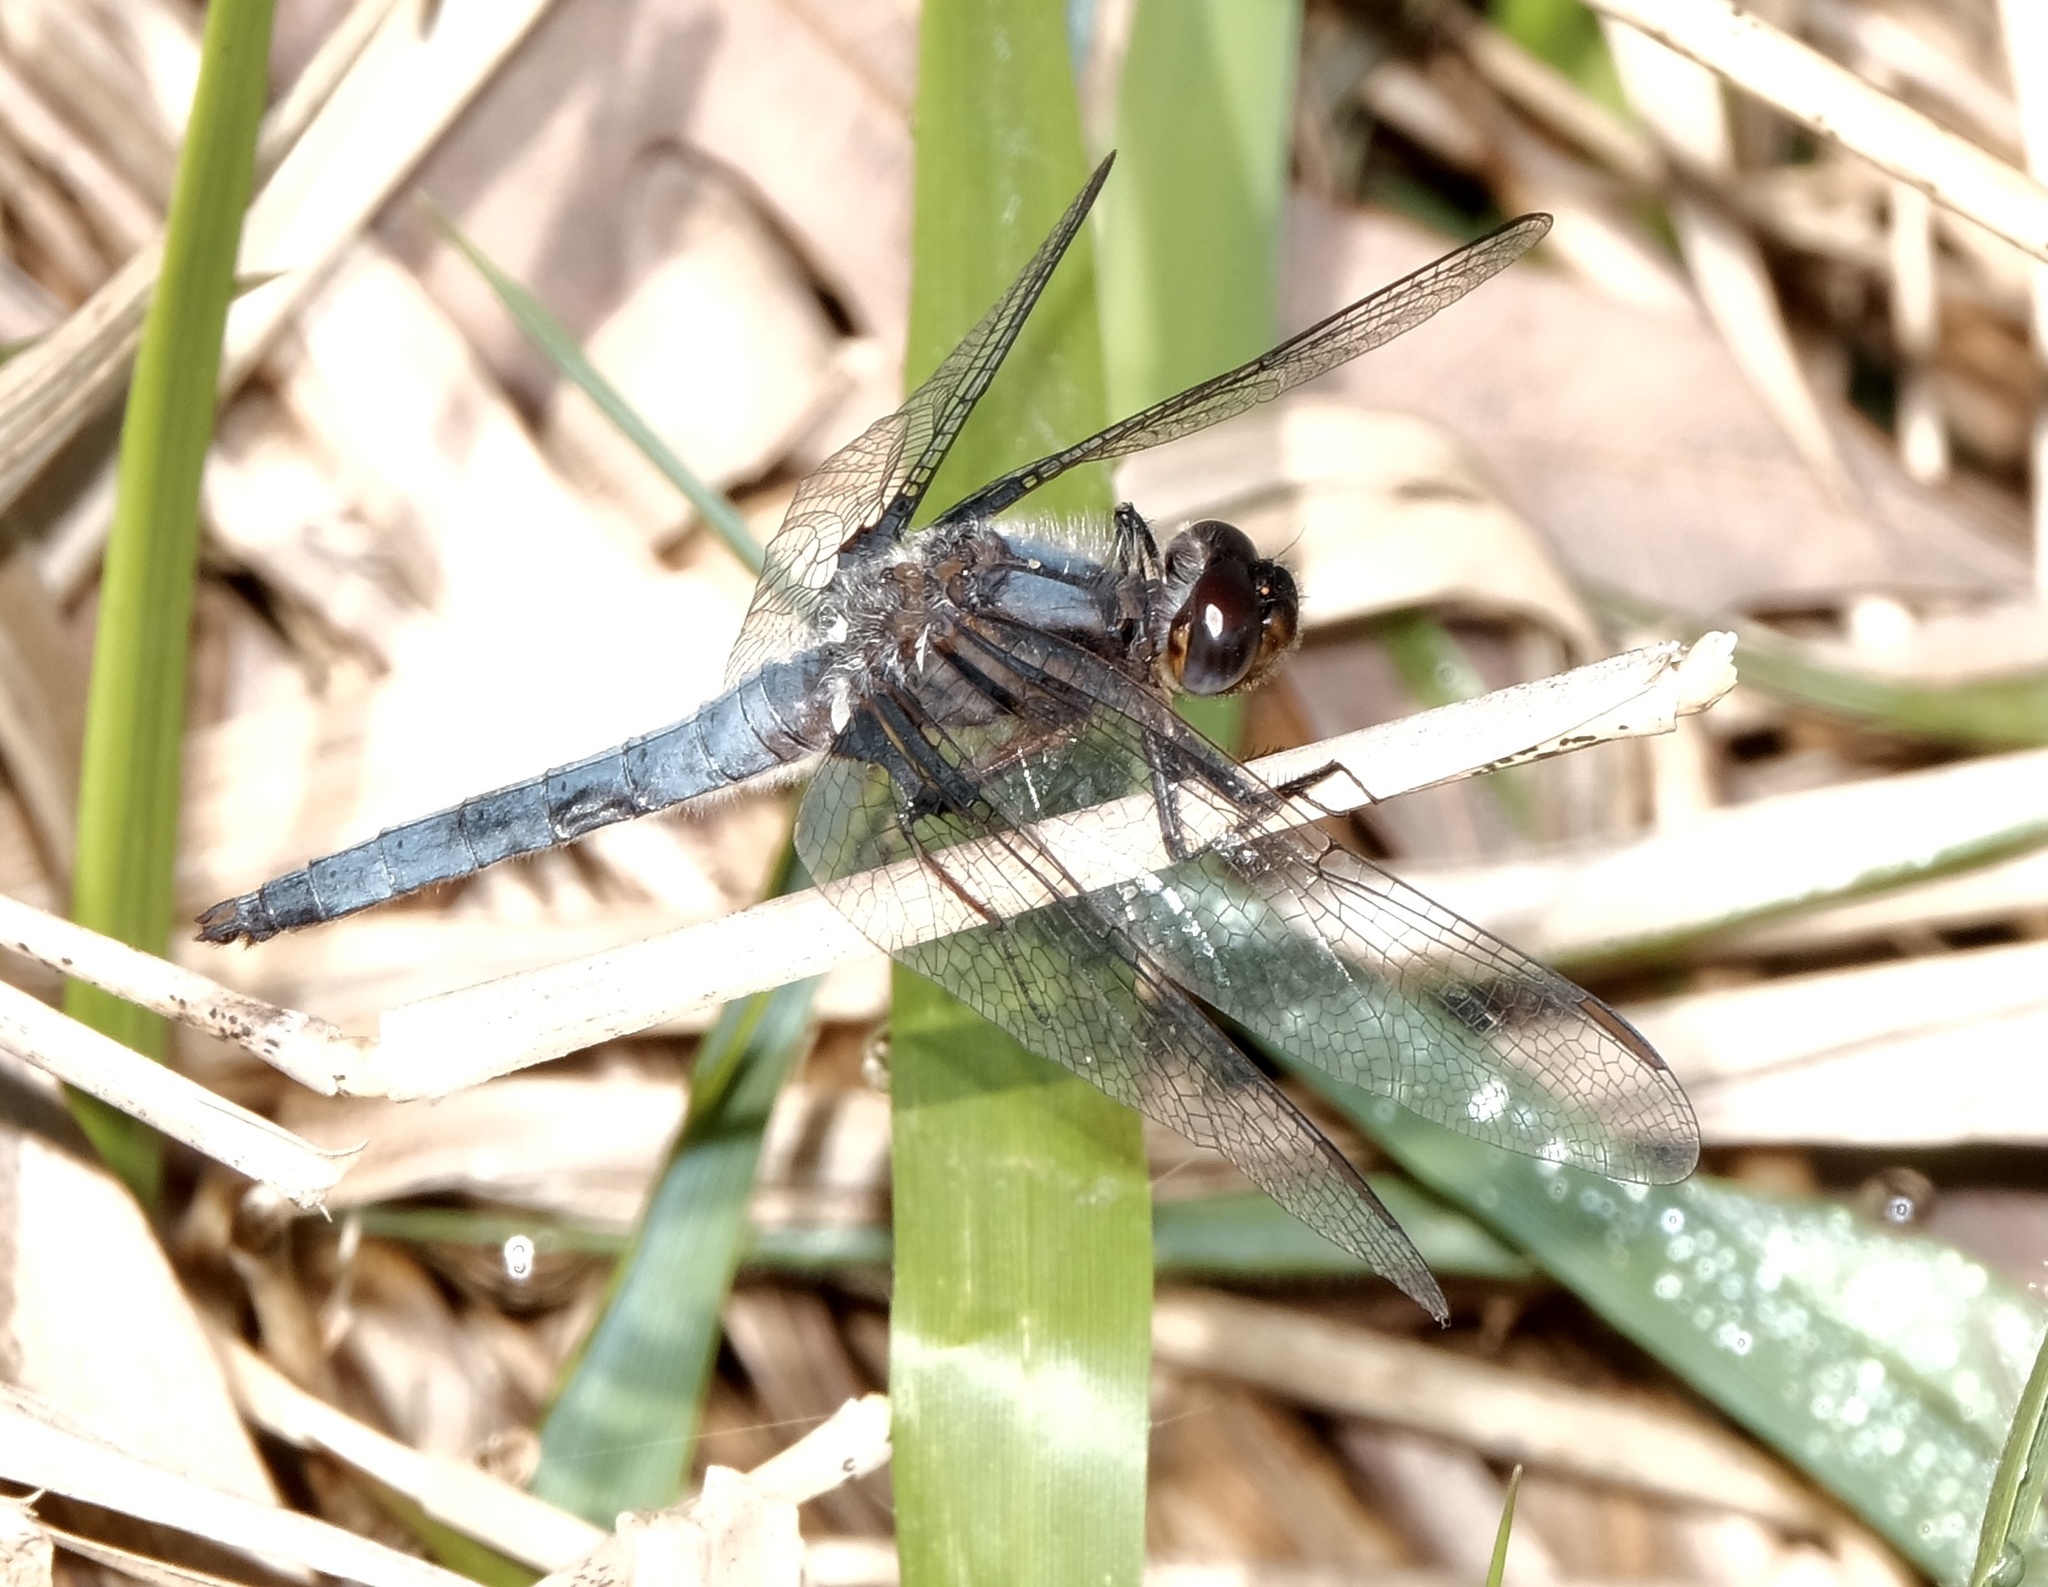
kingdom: Animalia
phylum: Arthropoda
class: Insecta
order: Odonata
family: Libellulidae
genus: Ladona
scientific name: Ladona deplanata
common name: Blue corporal
